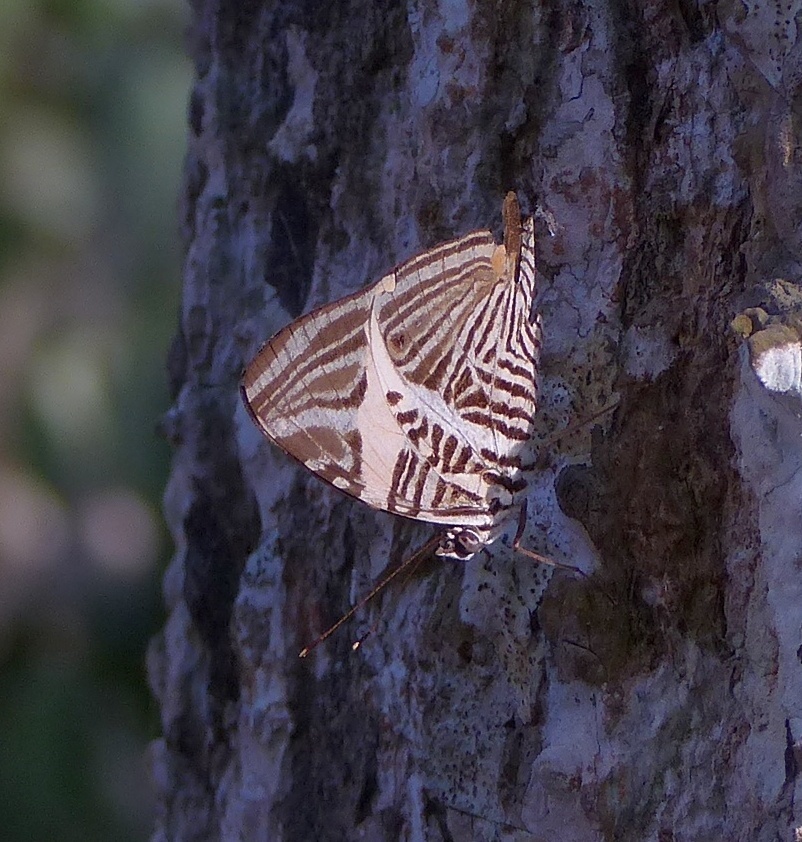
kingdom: Animalia
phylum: Arthropoda
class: Insecta
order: Lepidoptera
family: Nymphalidae
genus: Colobura
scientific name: Colobura dirce
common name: Dirce beauty
